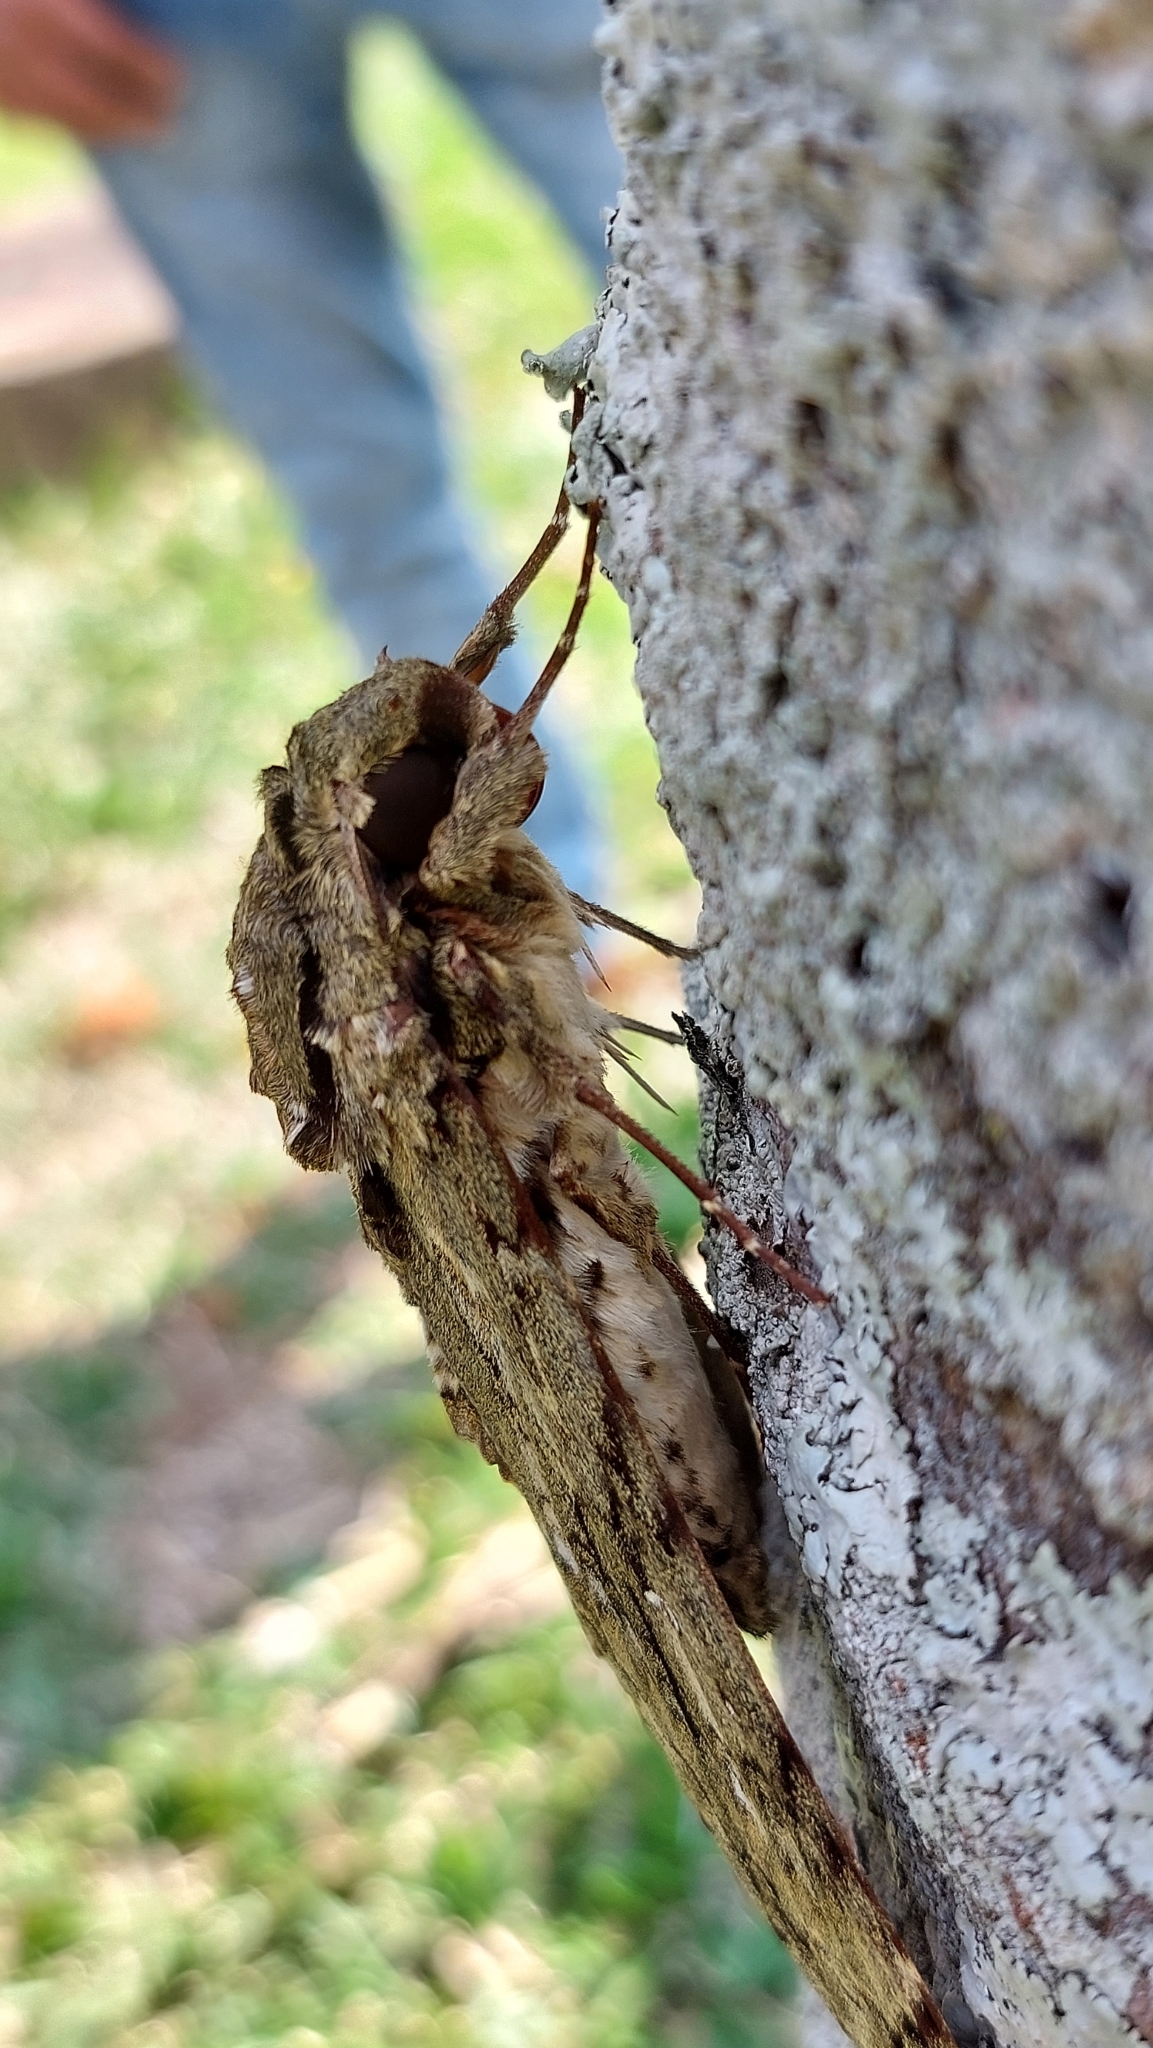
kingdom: Animalia
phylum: Arthropoda
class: Insecta
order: Lepidoptera
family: Sphingidae
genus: Cocytius
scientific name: Cocytius lucifer
